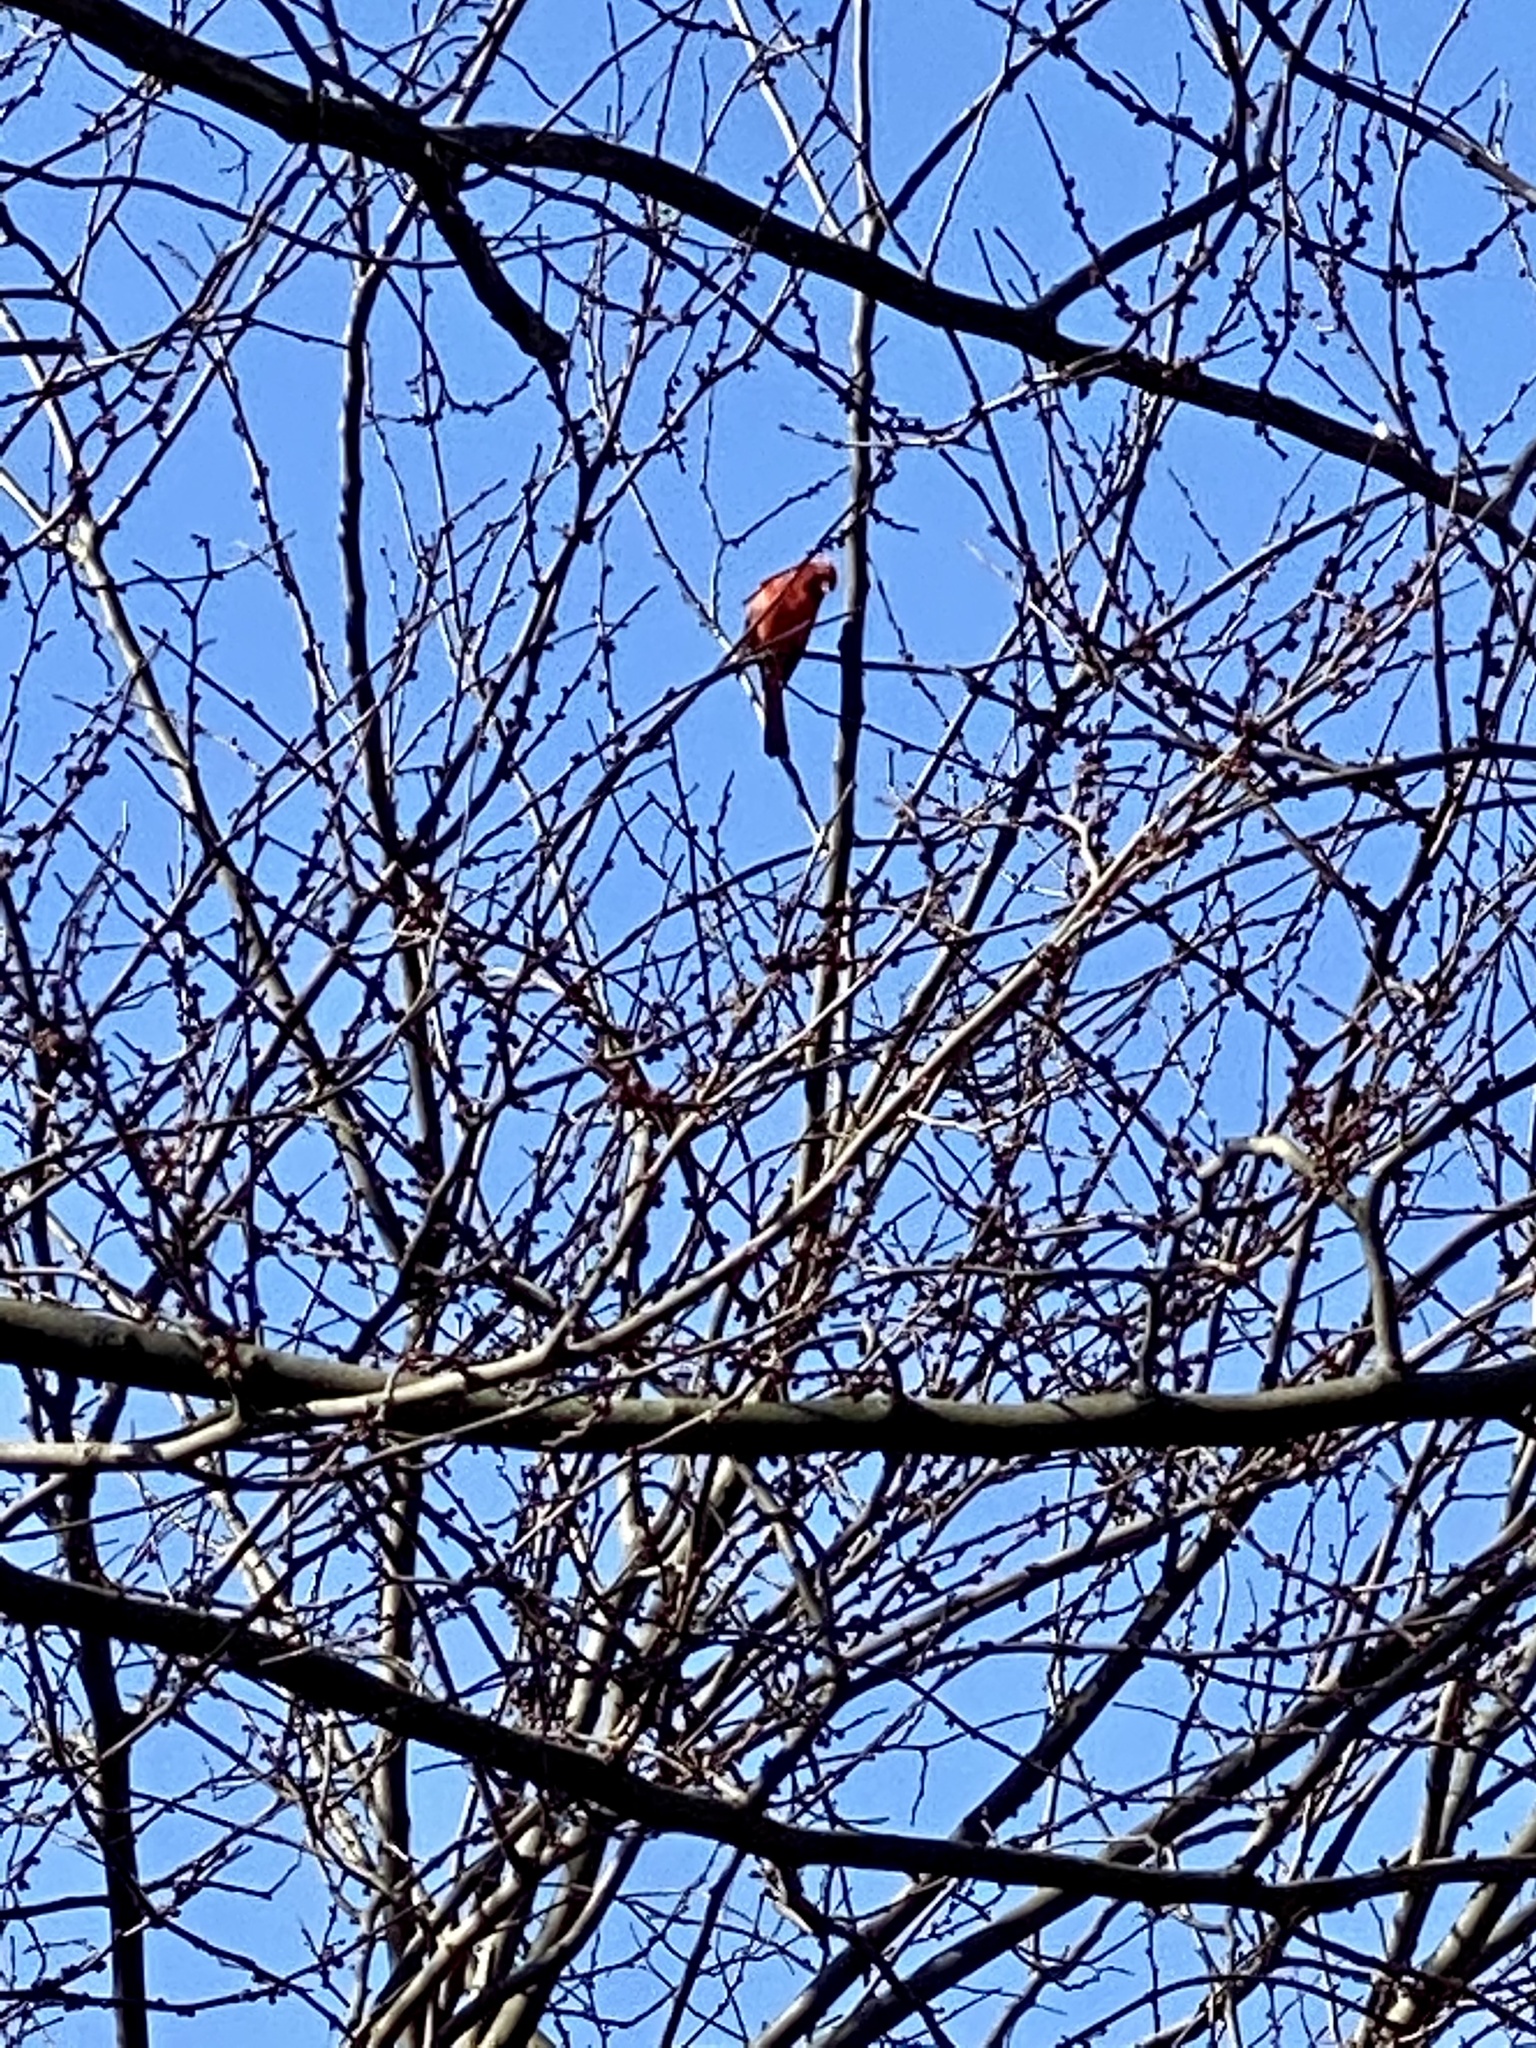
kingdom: Animalia
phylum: Chordata
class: Aves
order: Passeriformes
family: Cardinalidae
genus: Cardinalis
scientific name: Cardinalis cardinalis
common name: Northern cardinal
